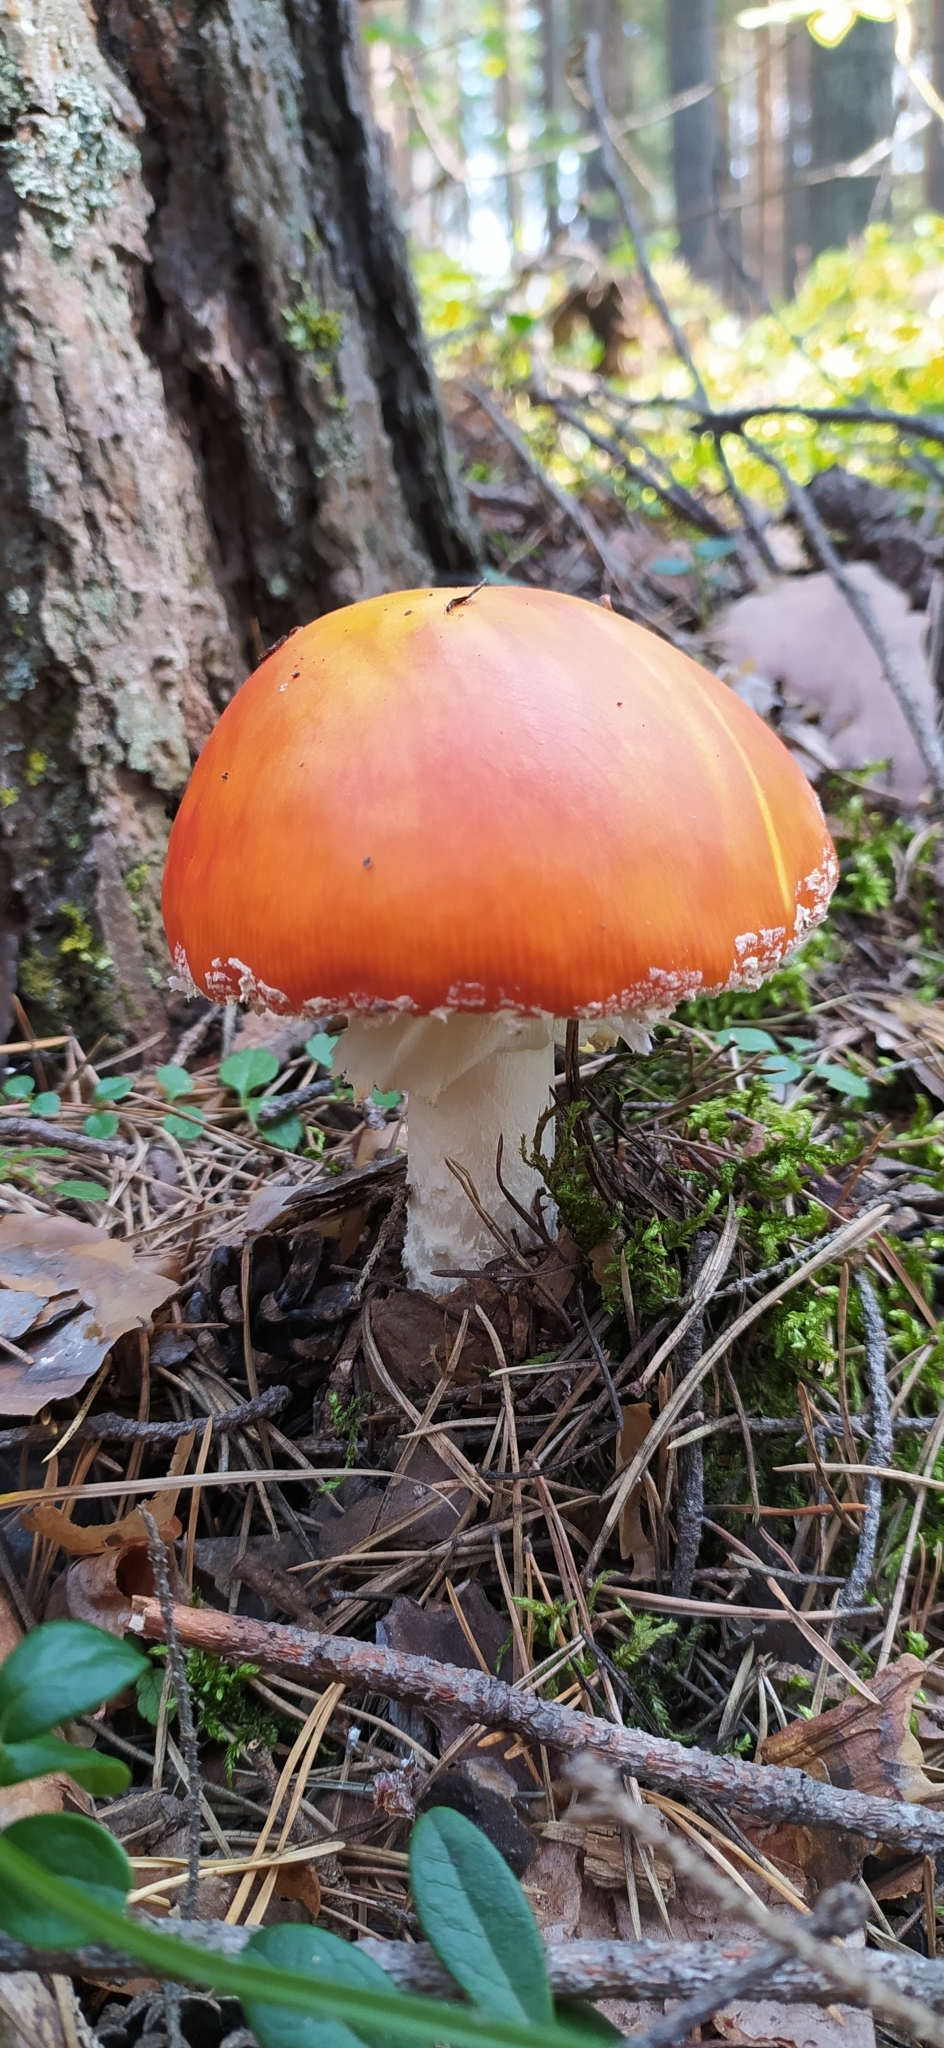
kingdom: Fungi
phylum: Basidiomycota
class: Agaricomycetes
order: Agaricales
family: Amanitaceae
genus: Amanita
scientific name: Amanita muscaria
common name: Fly agaric
